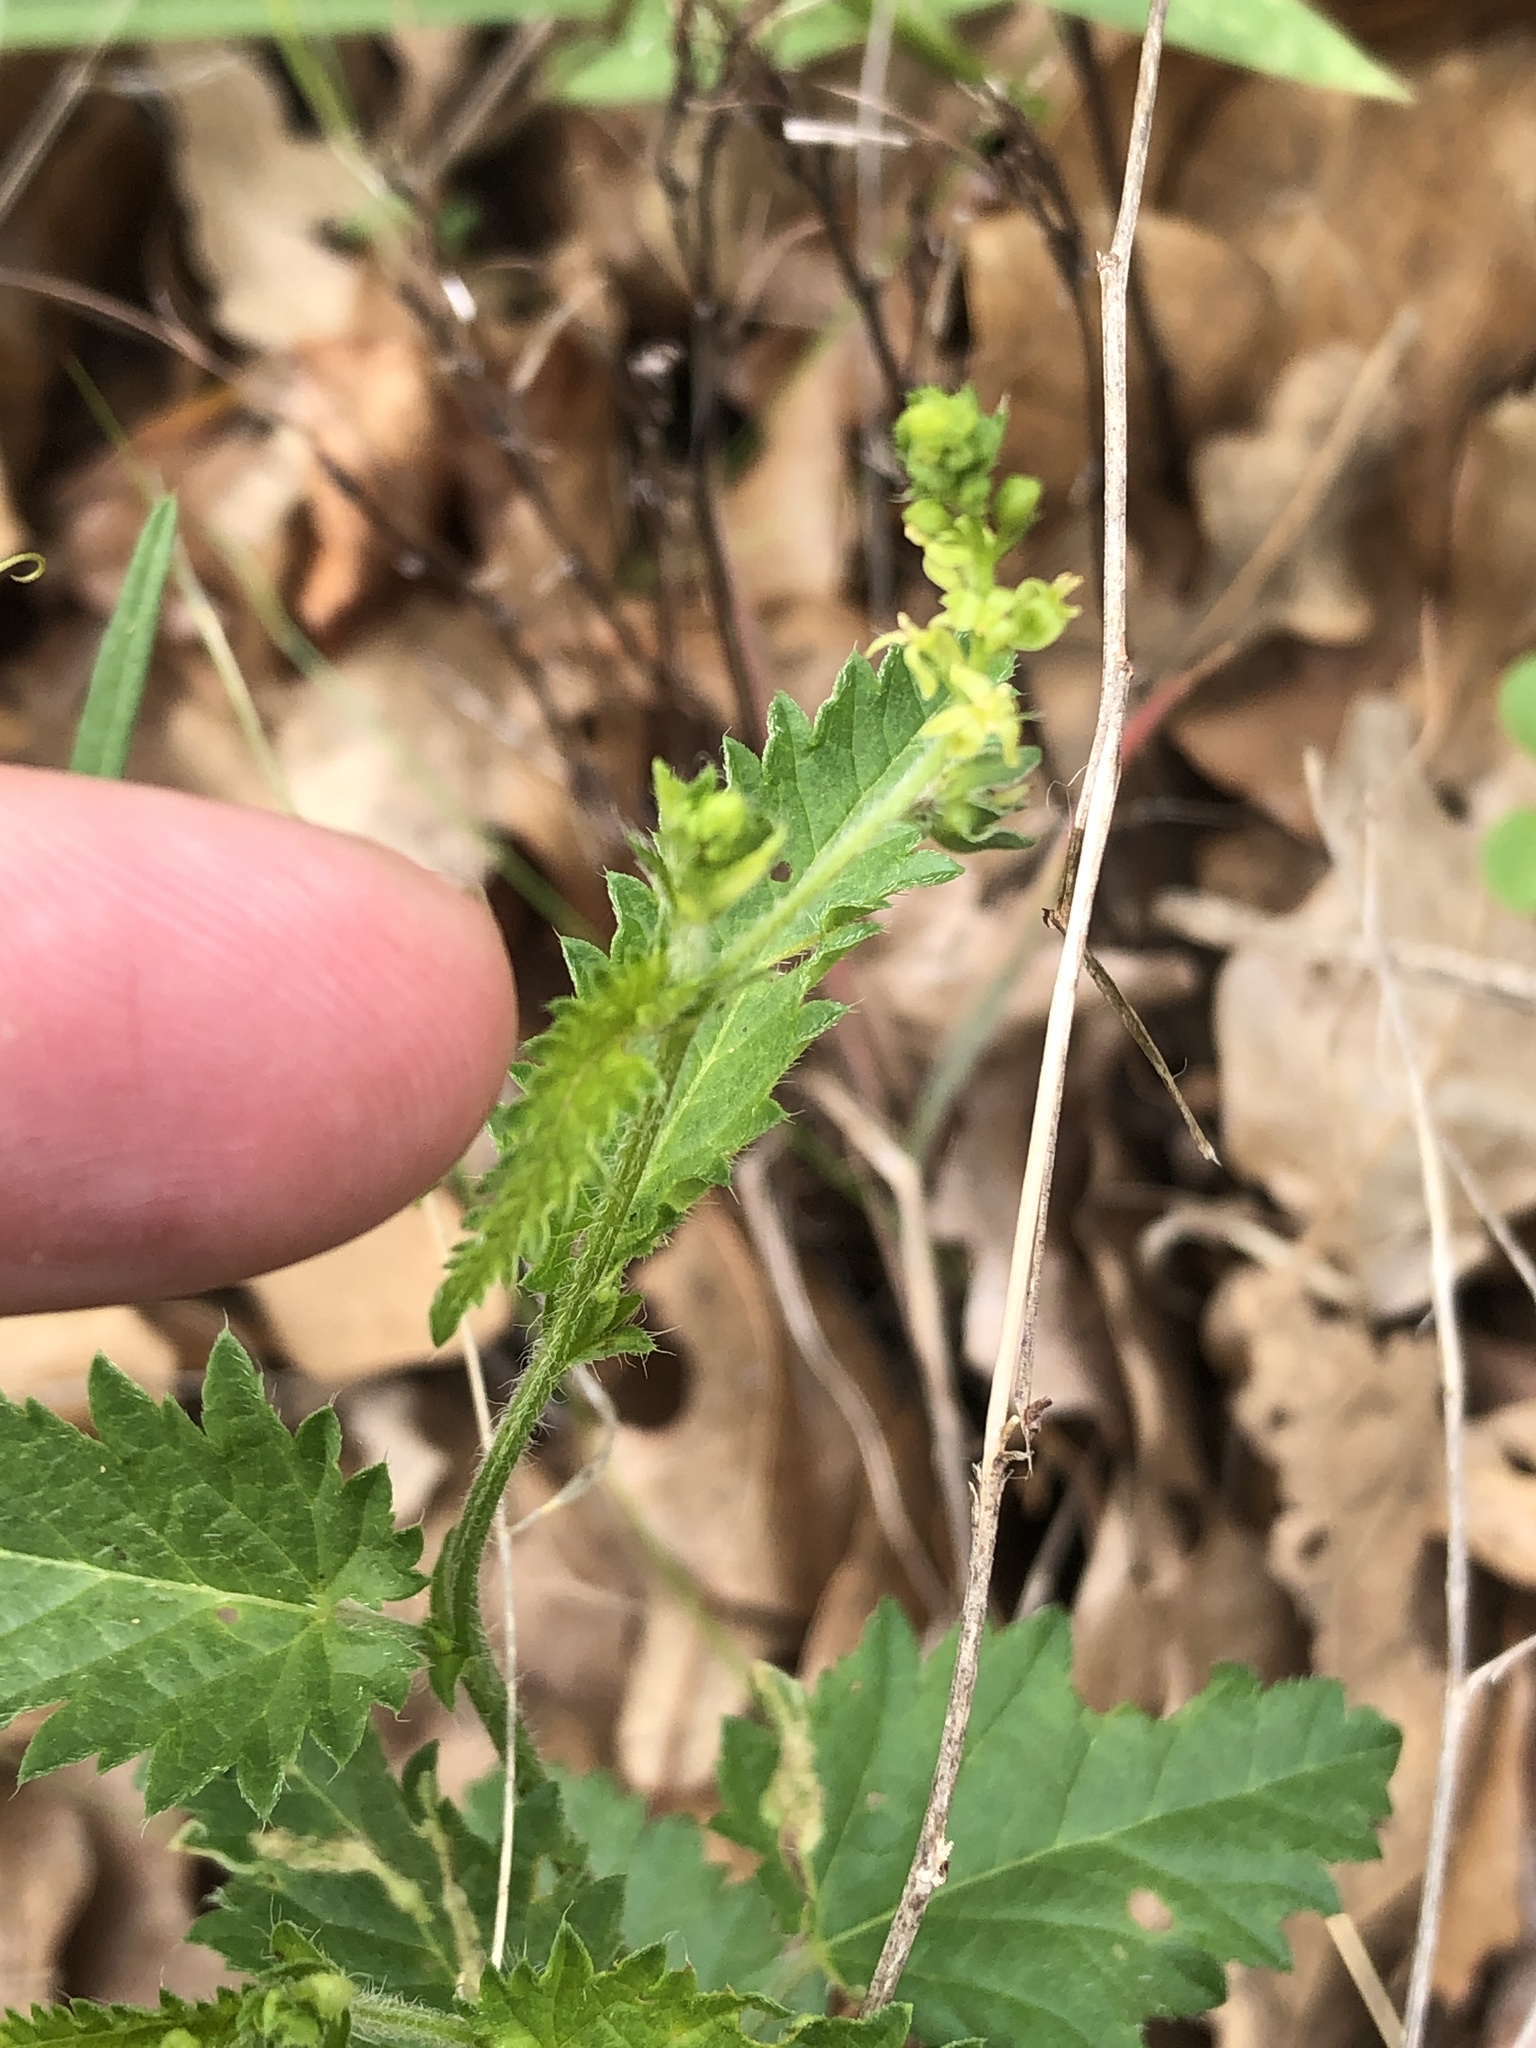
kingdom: Plantae
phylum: Tracheophyta
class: Magnoliopsida
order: Malpighiales
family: Euphorbiaceae
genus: Tragia
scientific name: Tragia urticifolia
